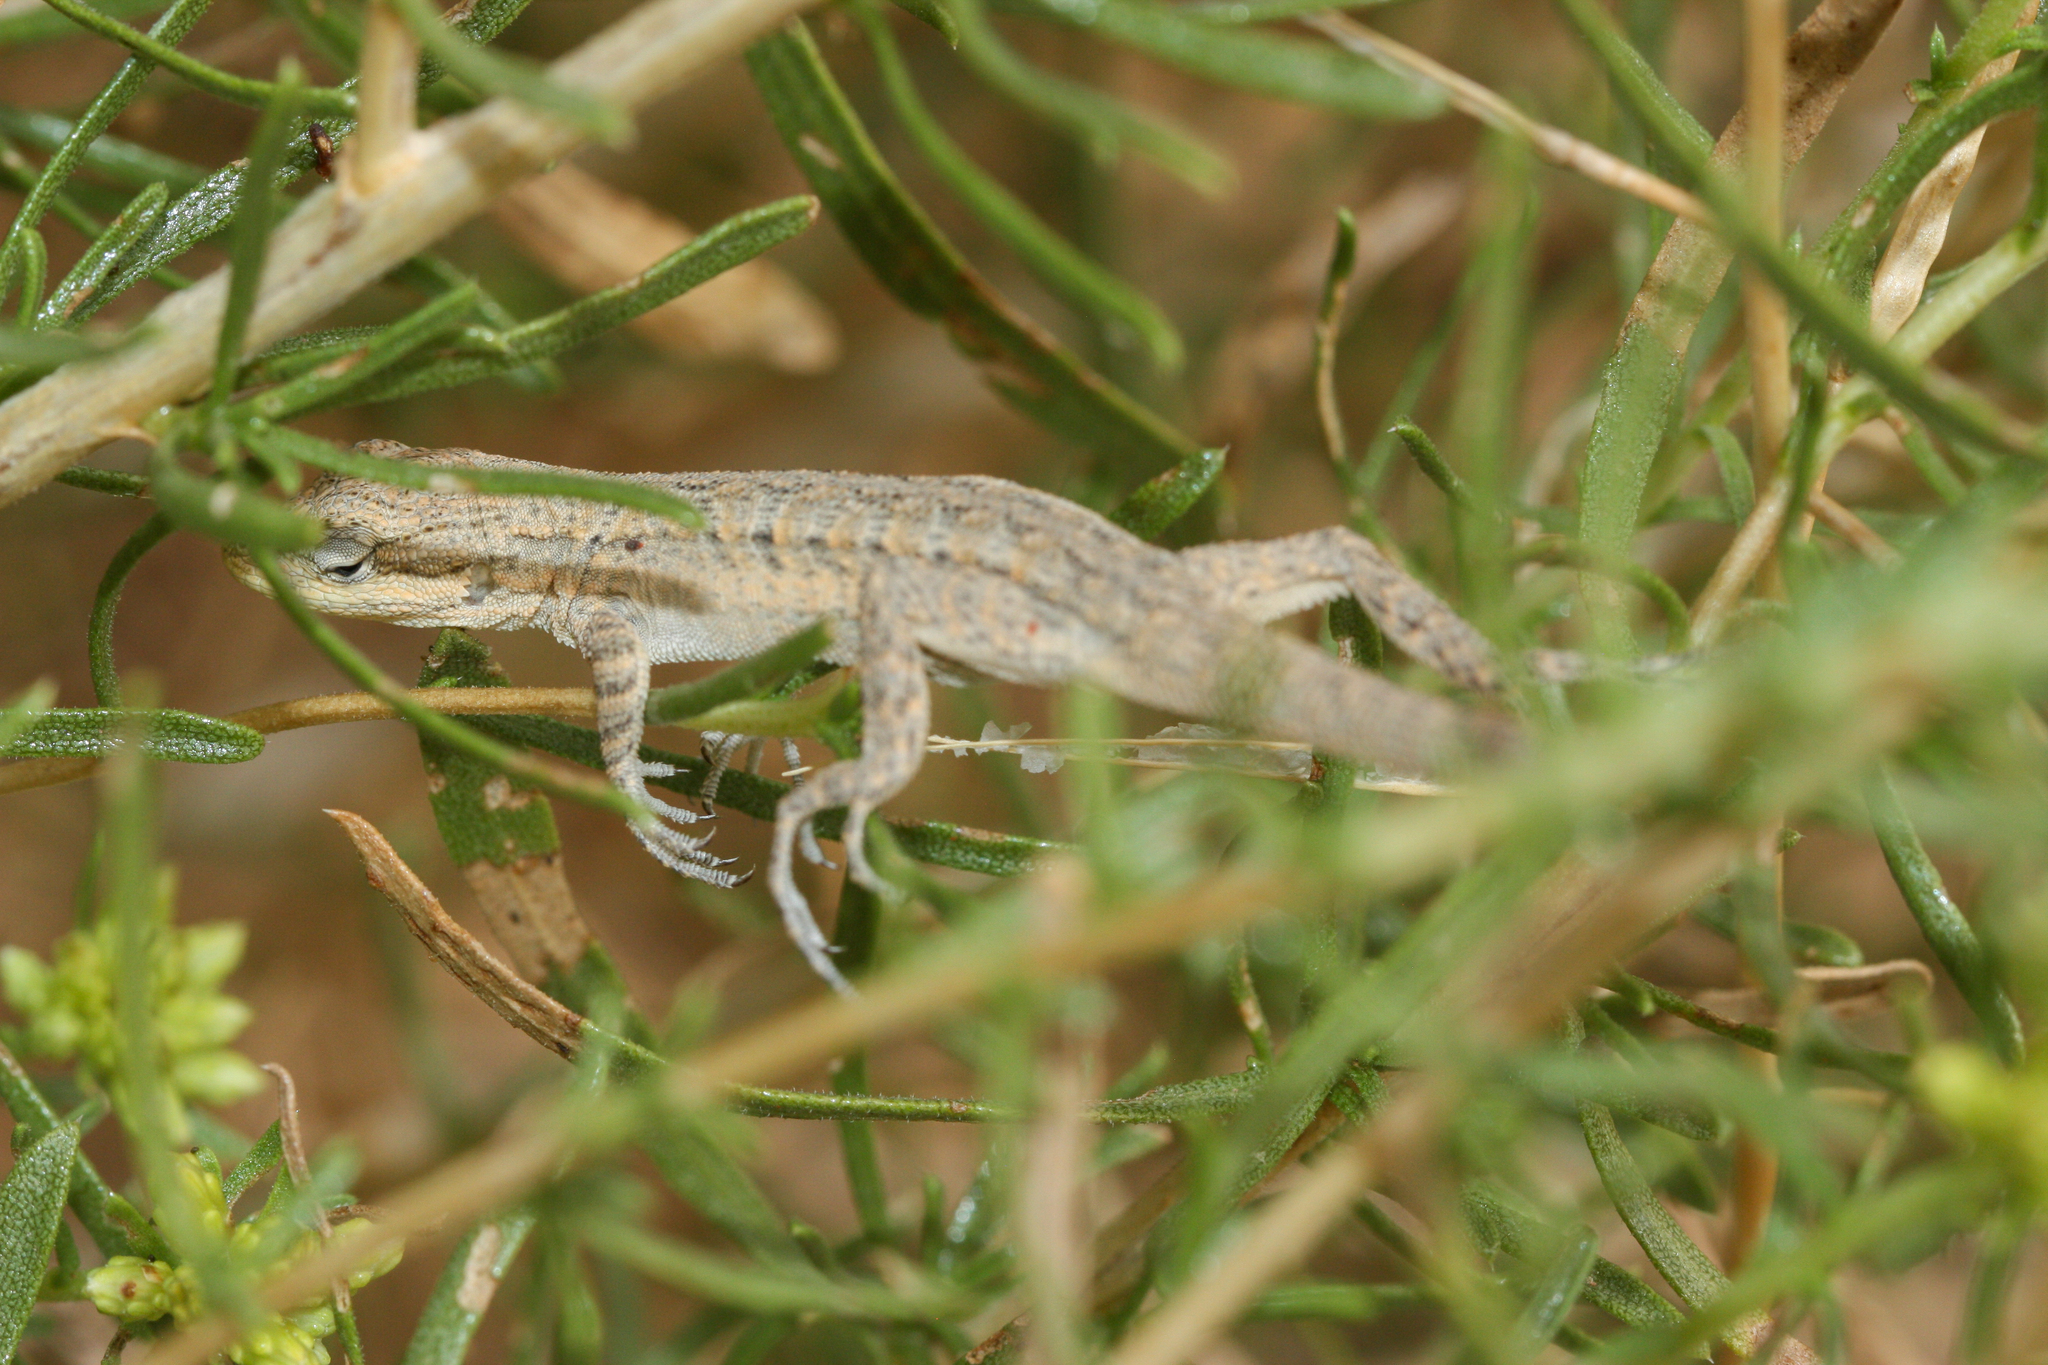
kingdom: Animalia
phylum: Chordata
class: Squamata
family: Phrynosomatidae
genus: Urosaurus
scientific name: Urosaurus ornatus
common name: Ornate tree lizard
